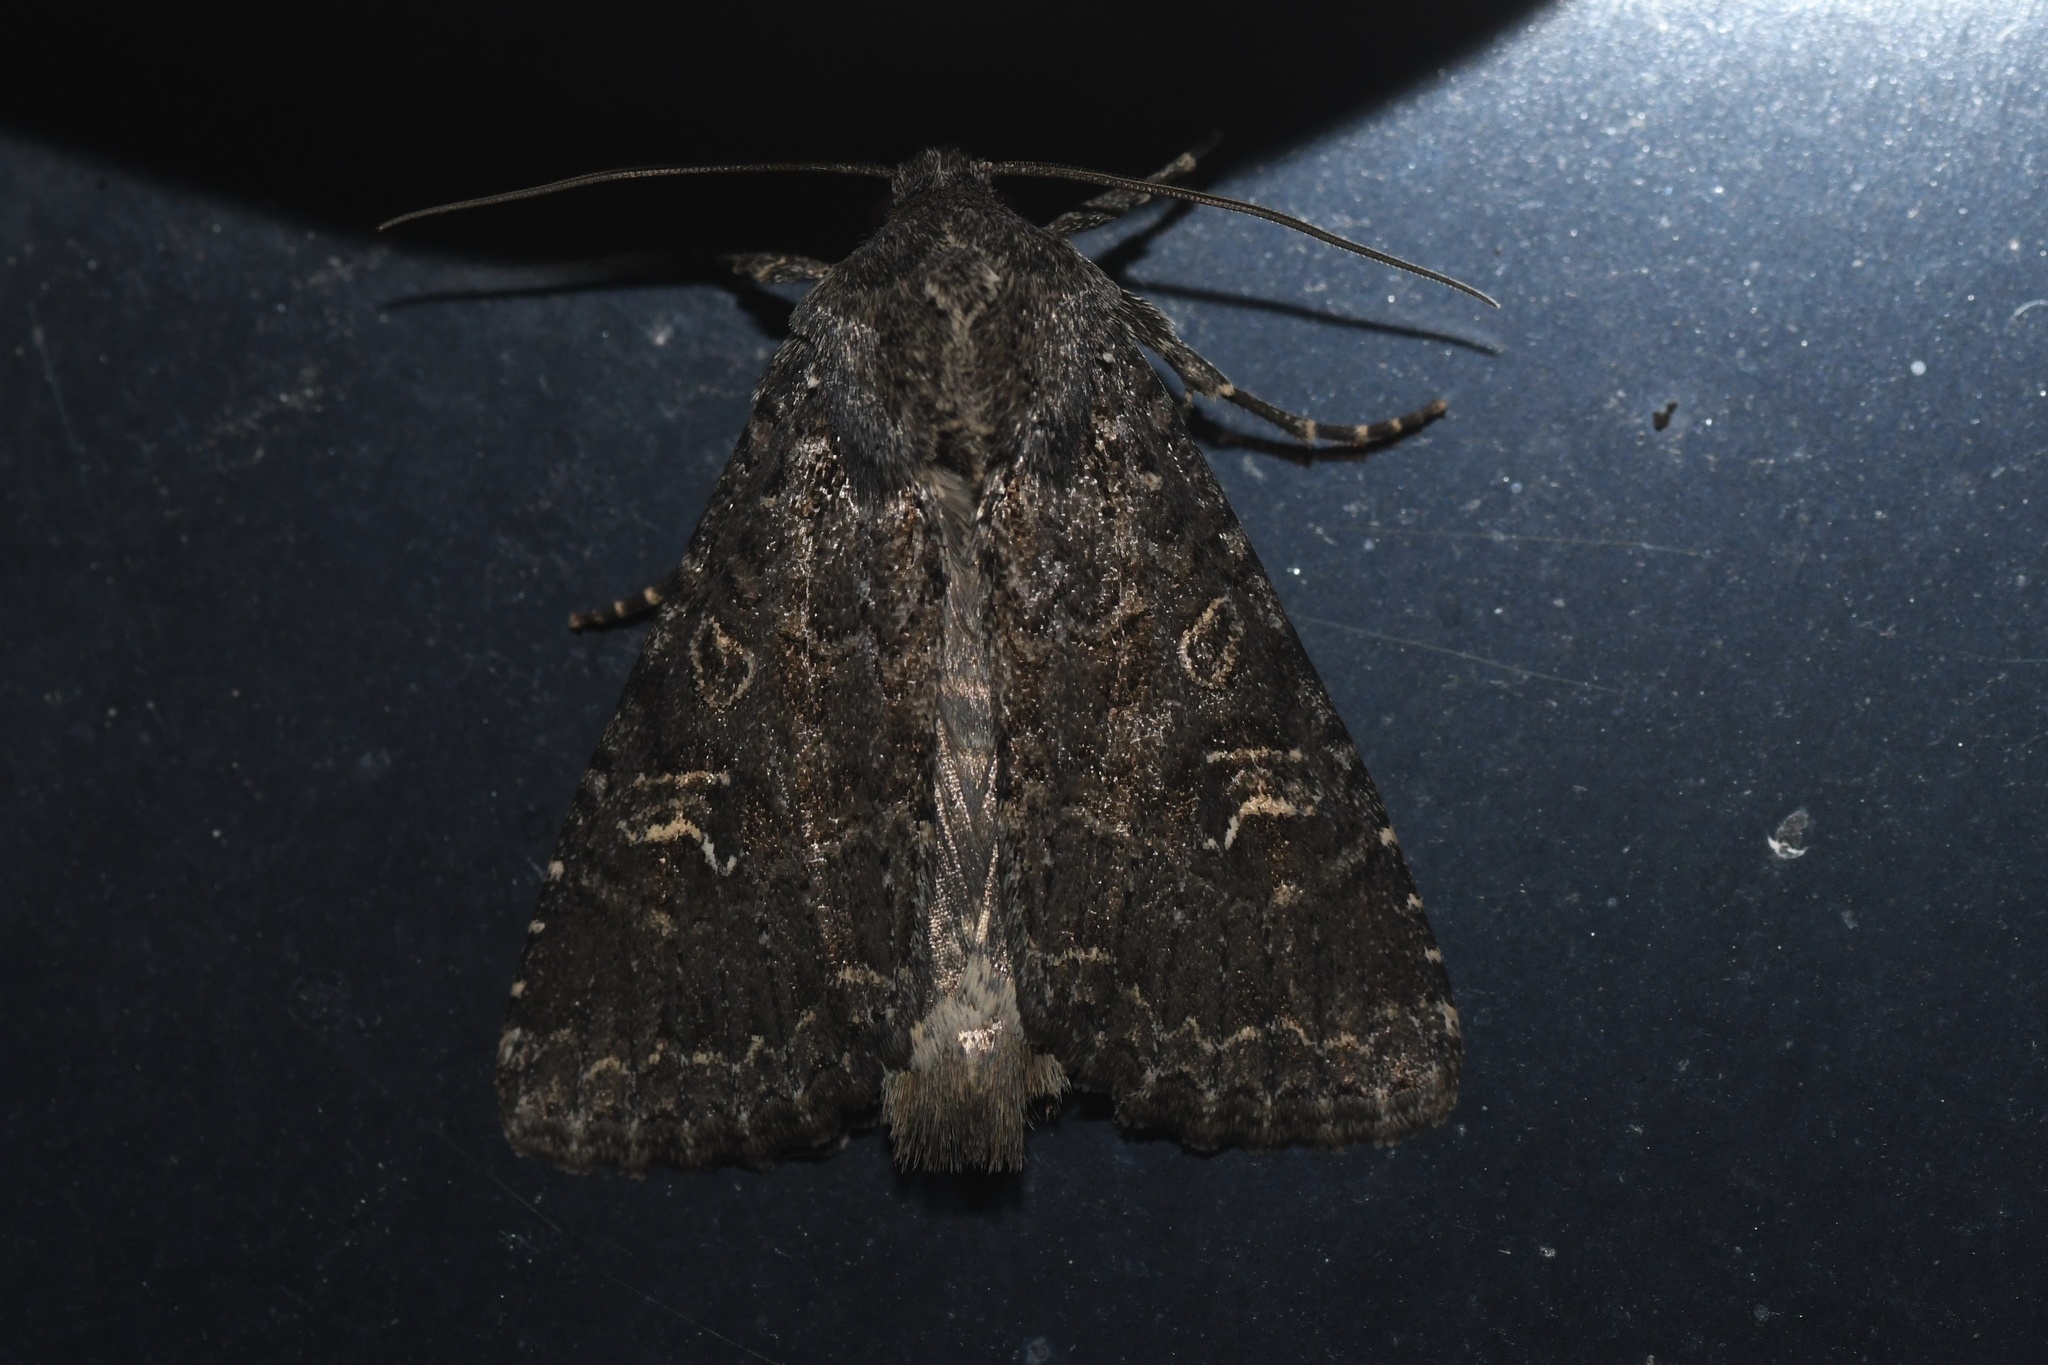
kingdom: Animalia
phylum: Arthropoda
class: Insecta
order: Lepidoptera
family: Noctuidae
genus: Apamea
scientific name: Apamea devastator
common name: Glassy cutworm
